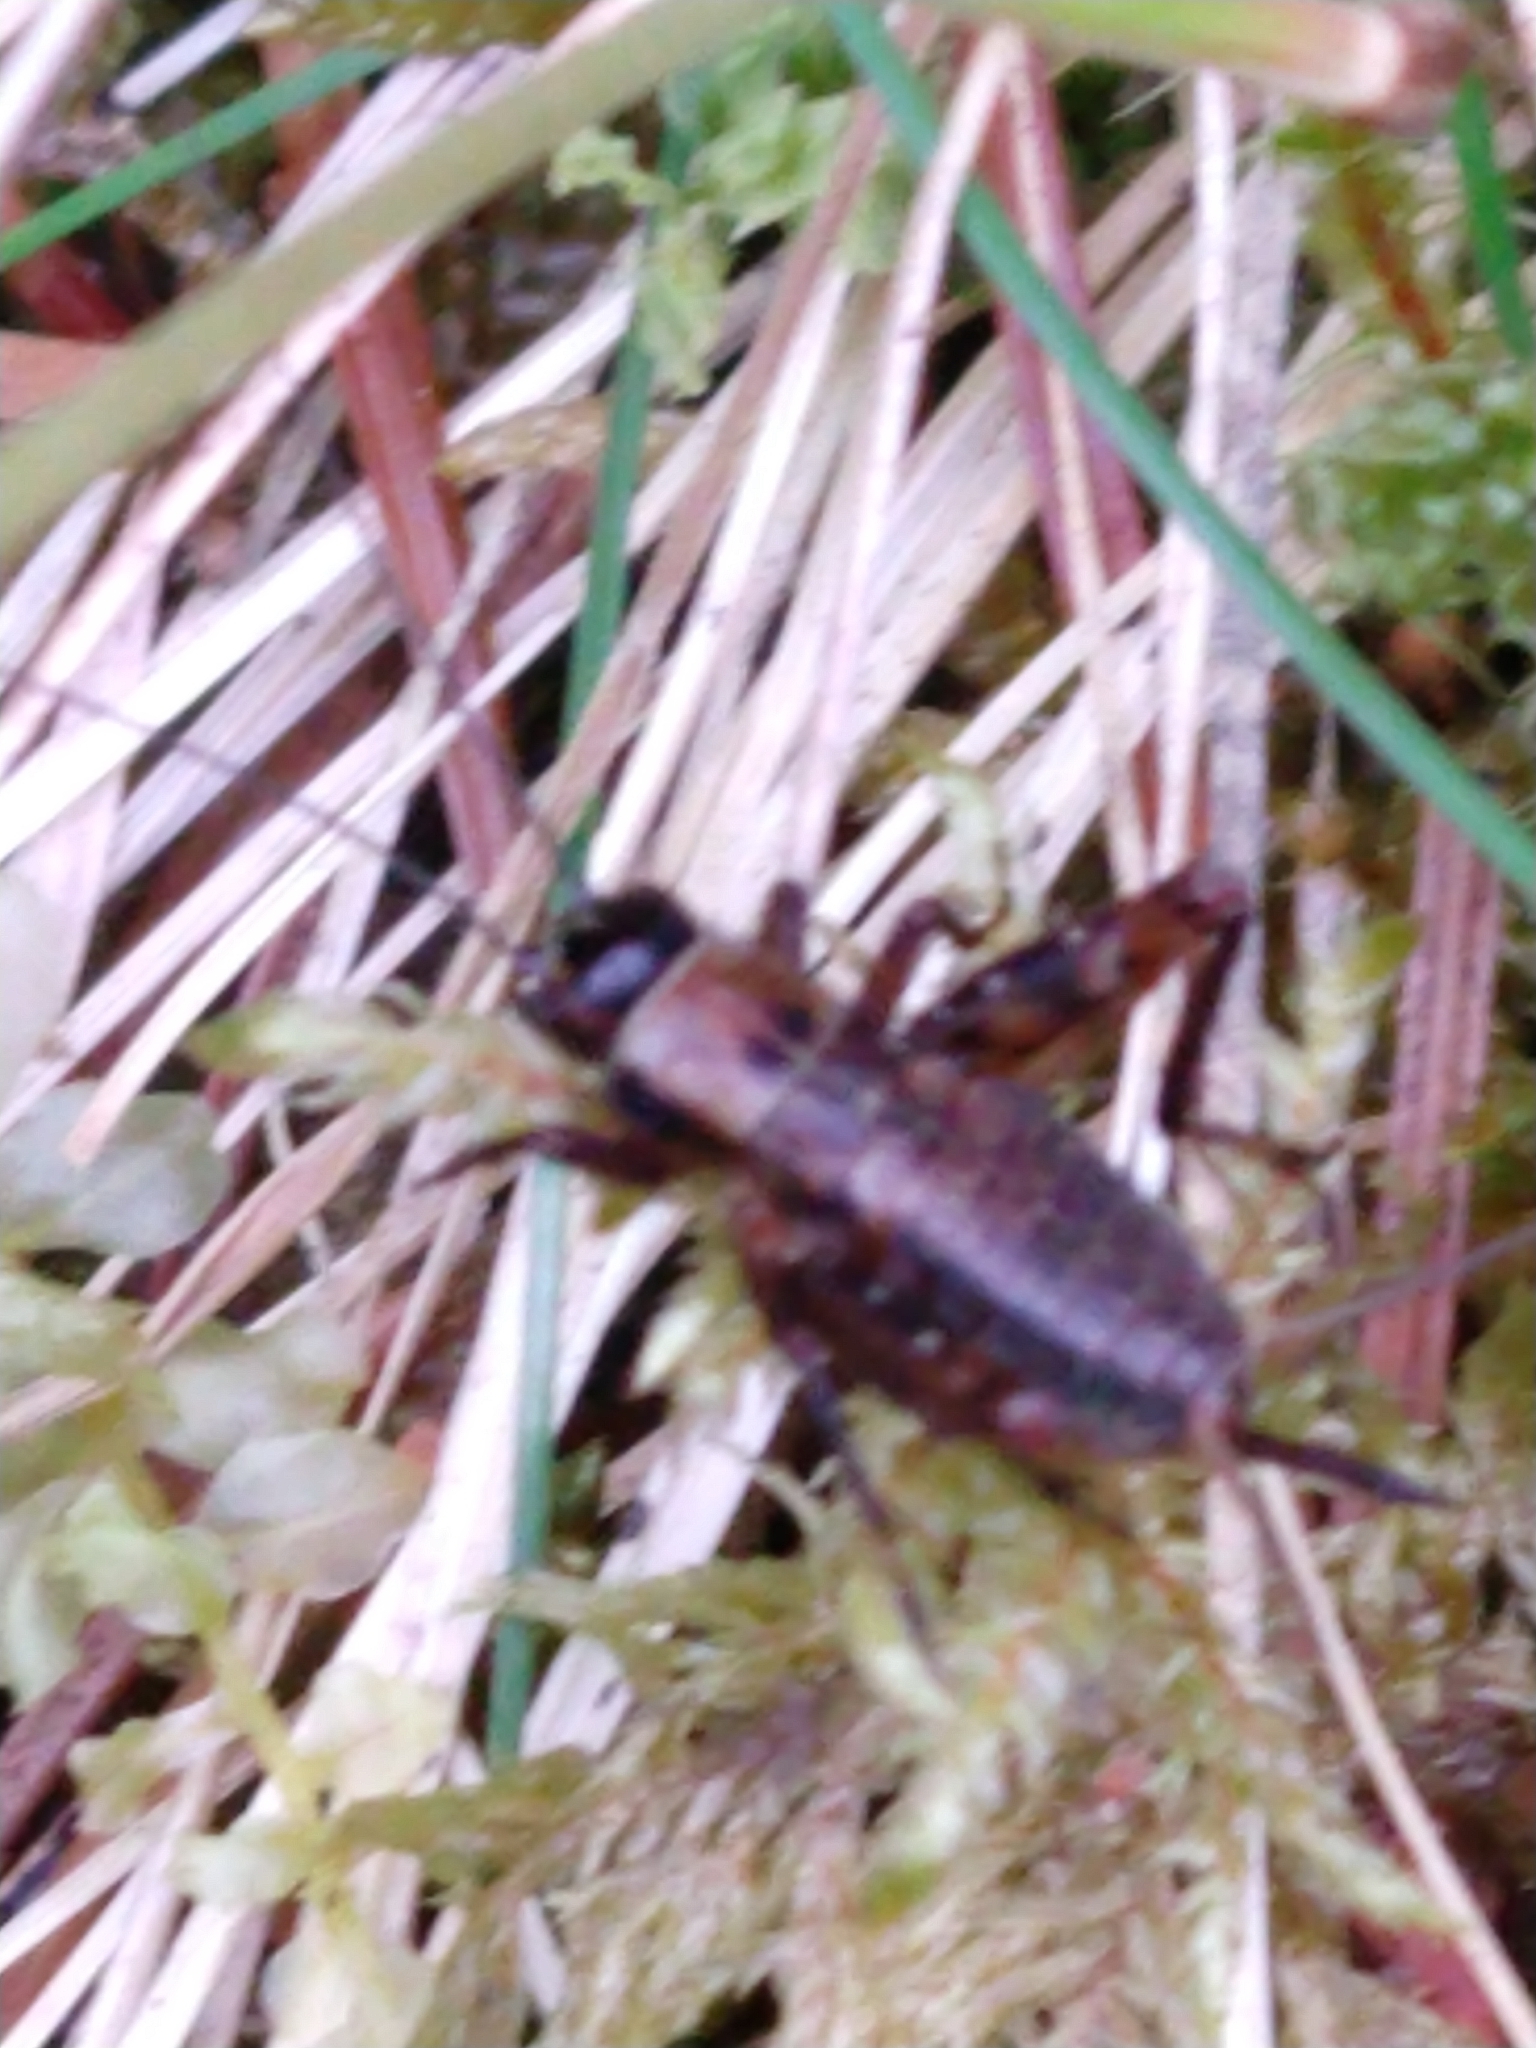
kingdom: Animalia
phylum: Arthropoda
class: Insecta
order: Orthoptera
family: Trigonidiidae
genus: Nemobius
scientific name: Nemobius sylvestris
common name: Wood-cricket
